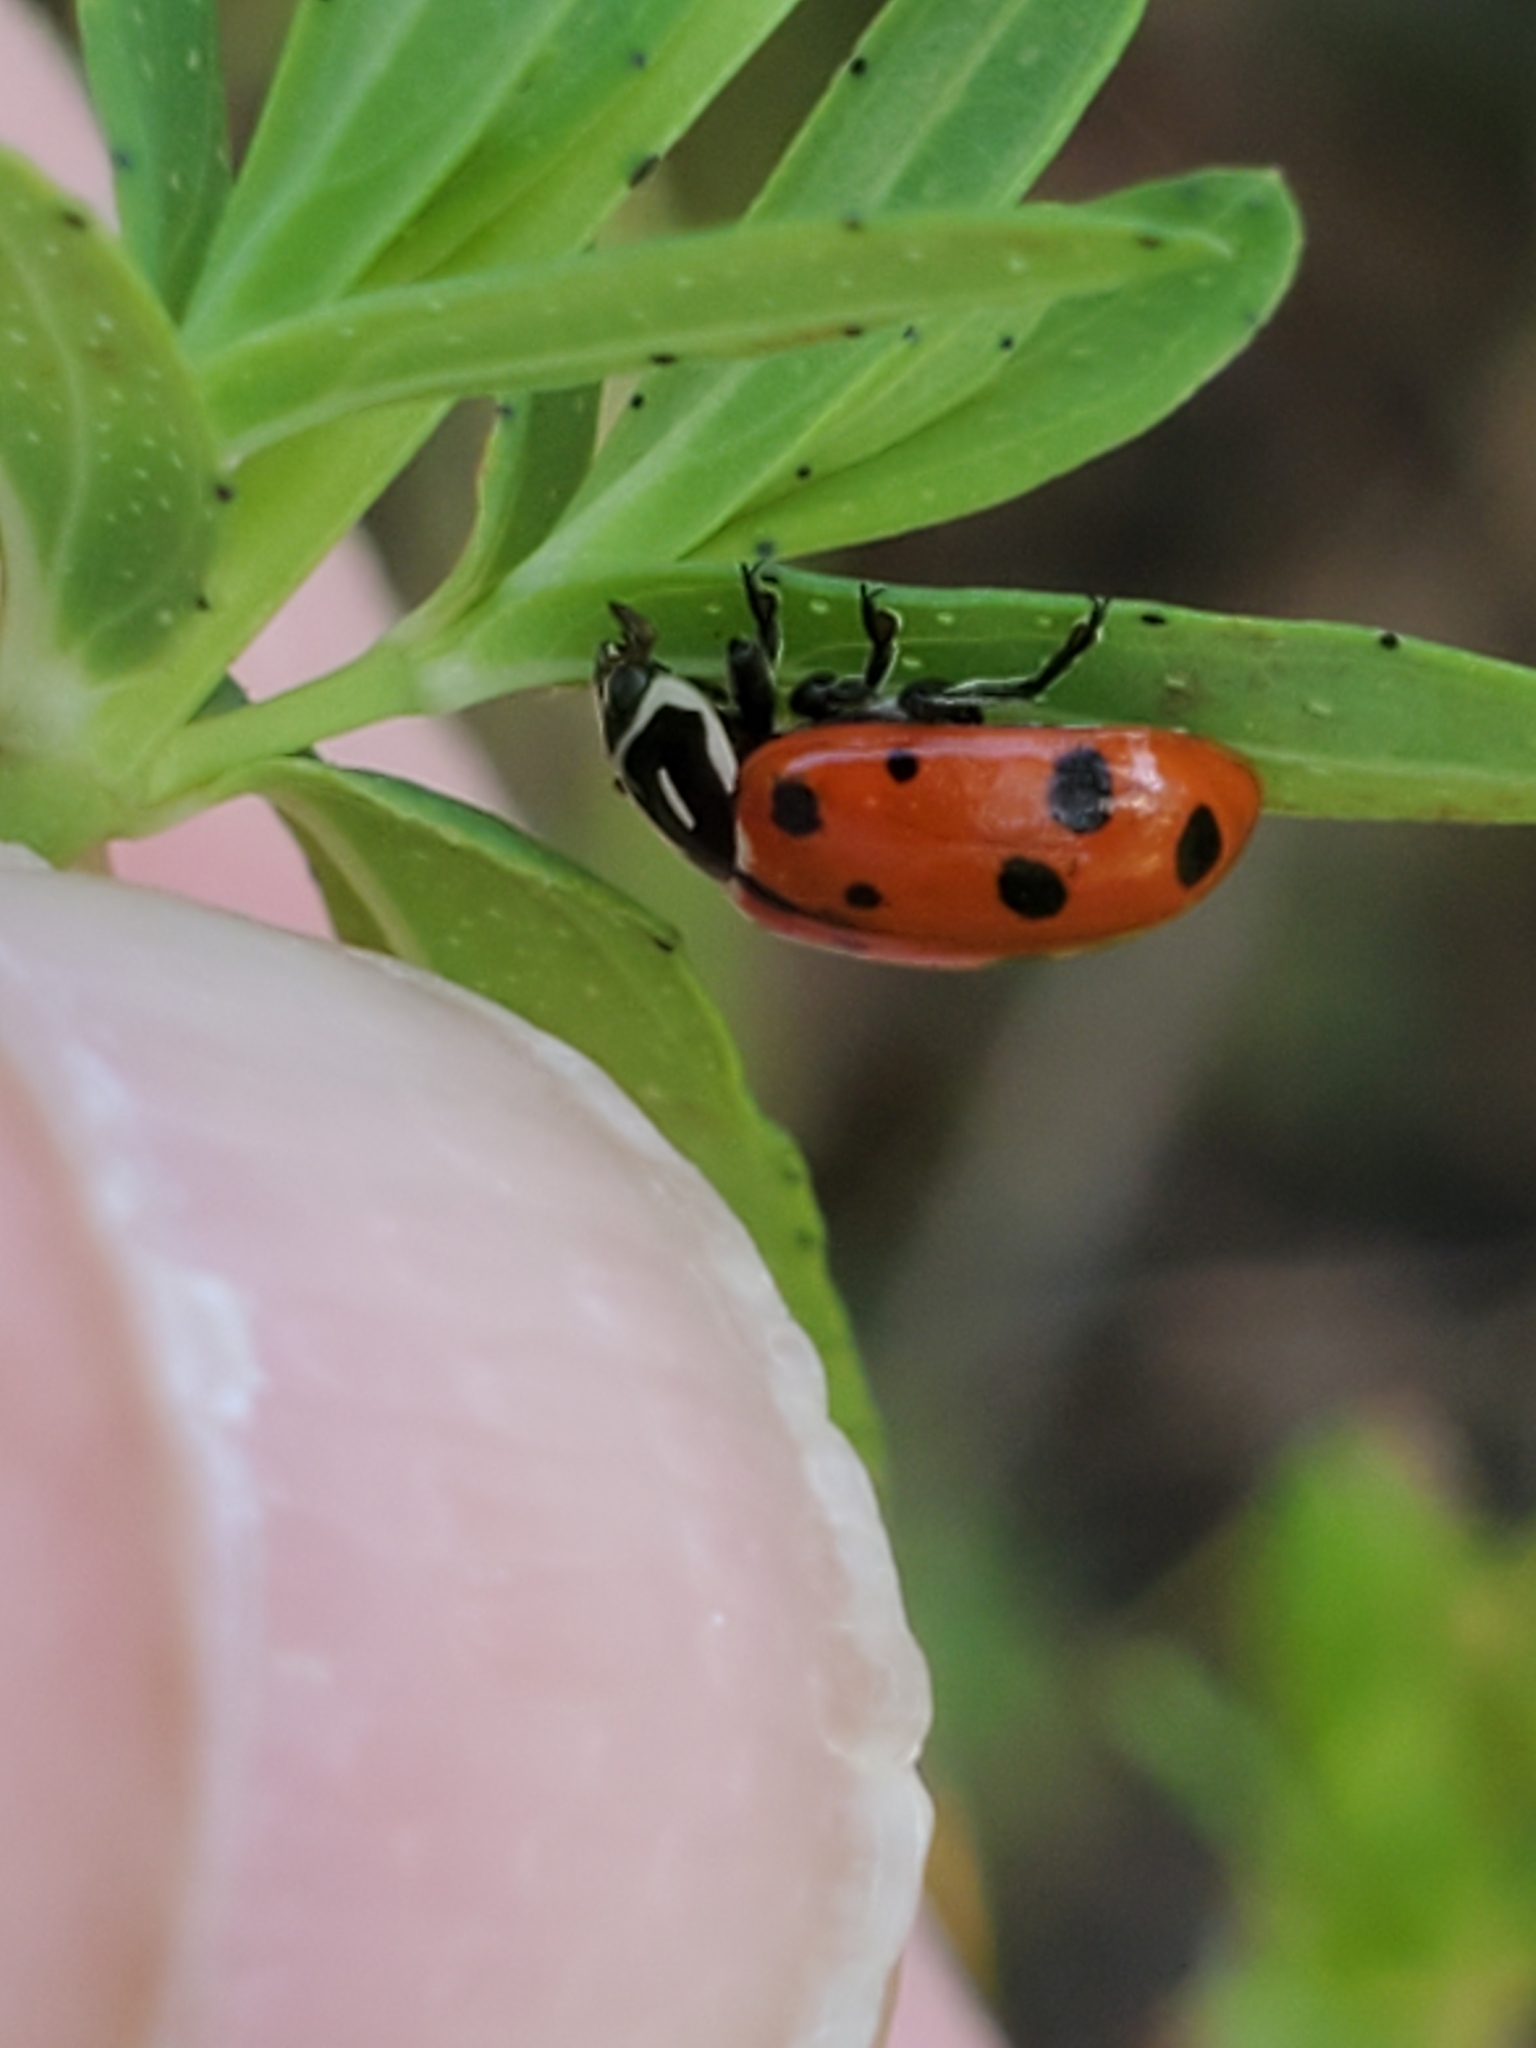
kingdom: Animalia
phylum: Arthropoda
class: Insecta
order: Coleoptera
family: Coccinellidae
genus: Hippodamia
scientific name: Hippodamia convergens
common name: Convergent lady beetle
